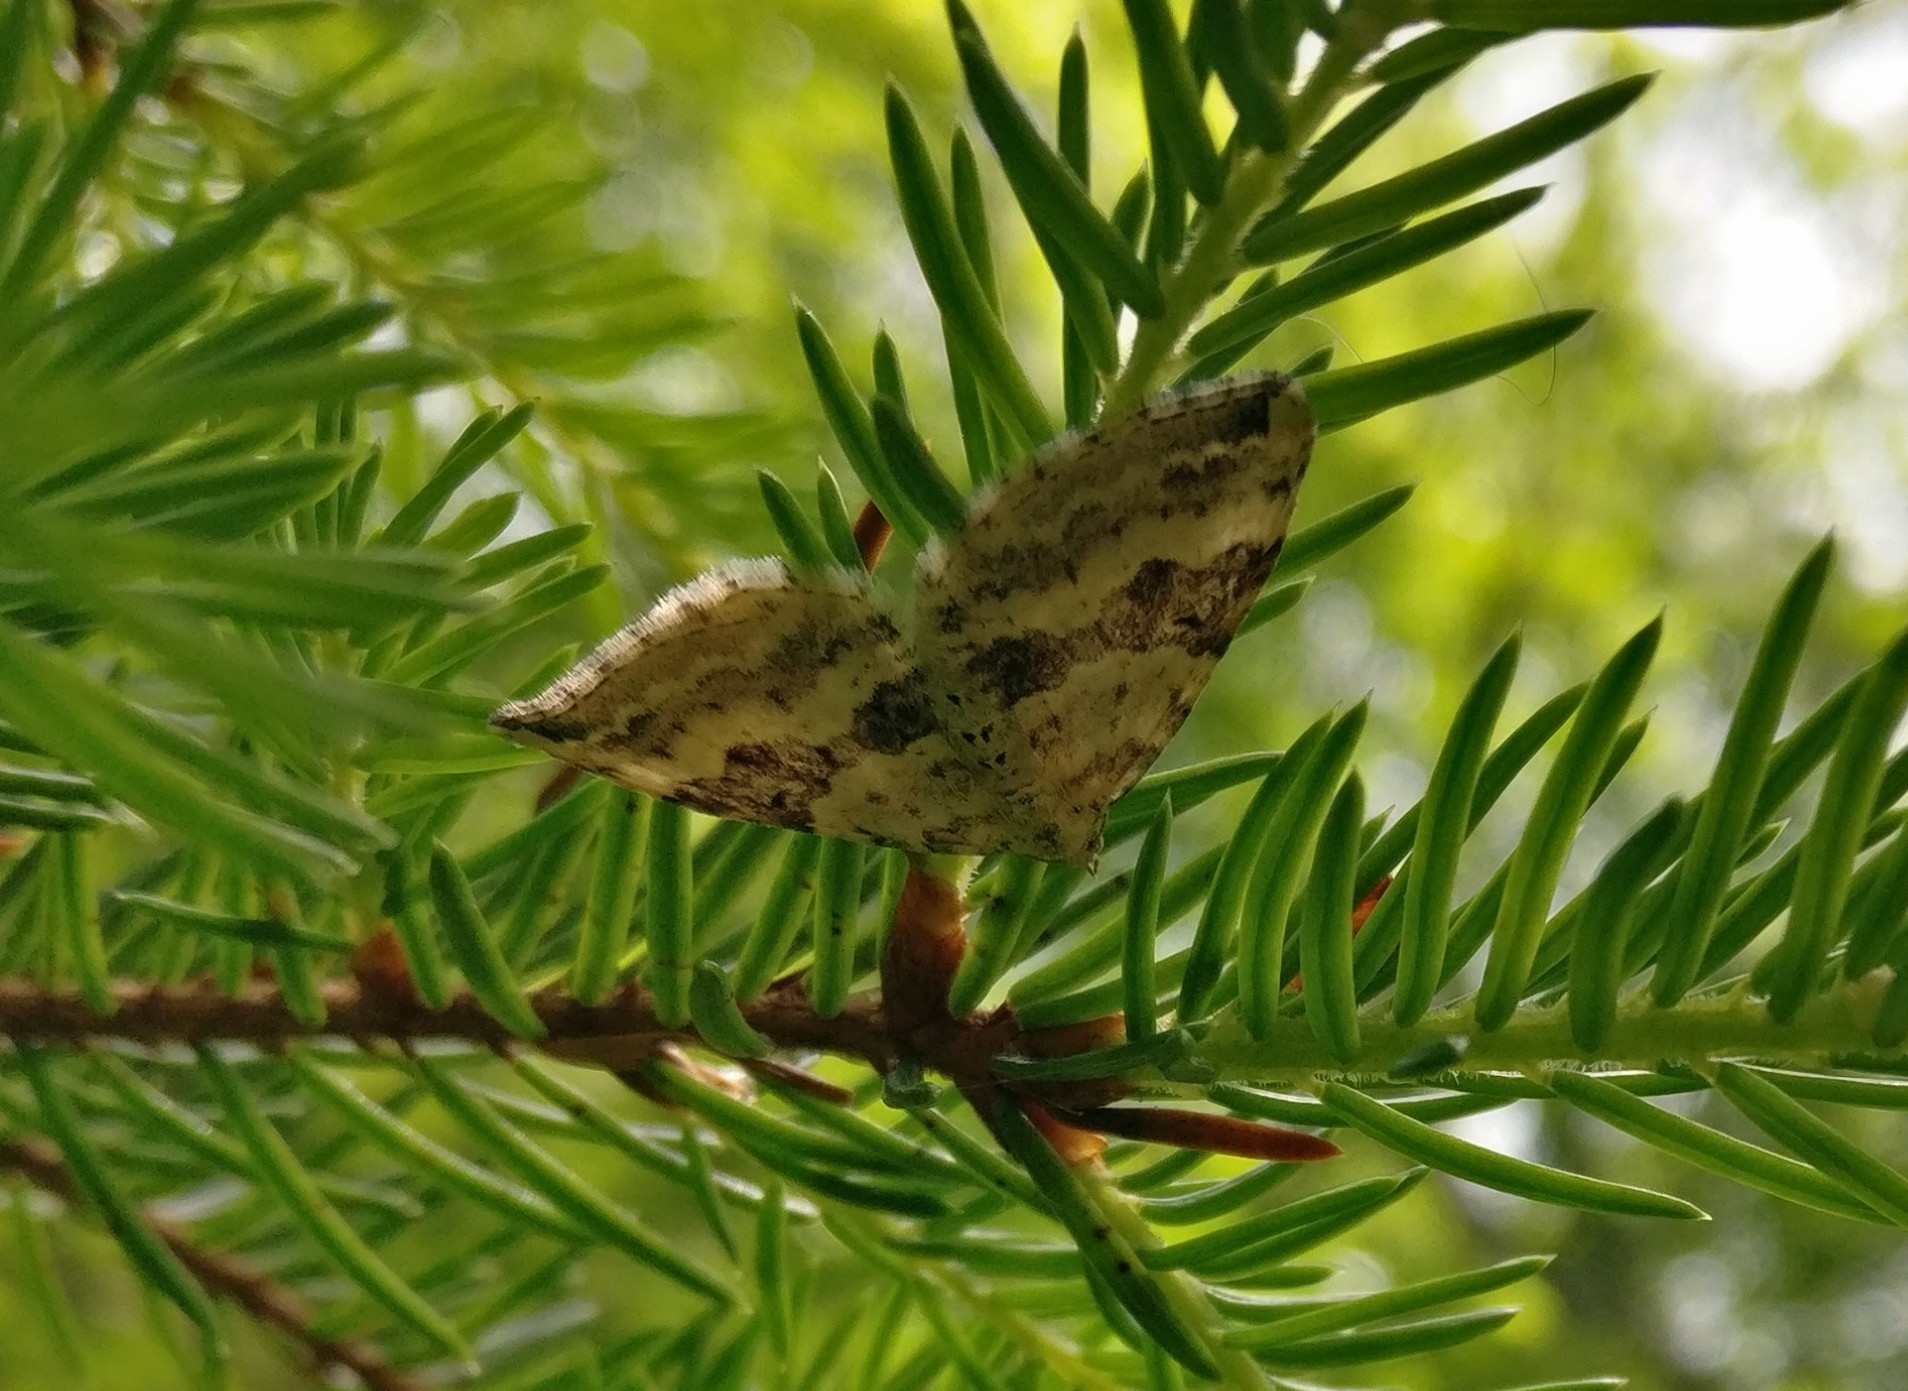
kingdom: Animalia
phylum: Arthropoda
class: Insecta
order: Lepidoptera
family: Geometridae
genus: Xanthorhoe
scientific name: Xanthorhoe montanata
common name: Silver-ground carpet
